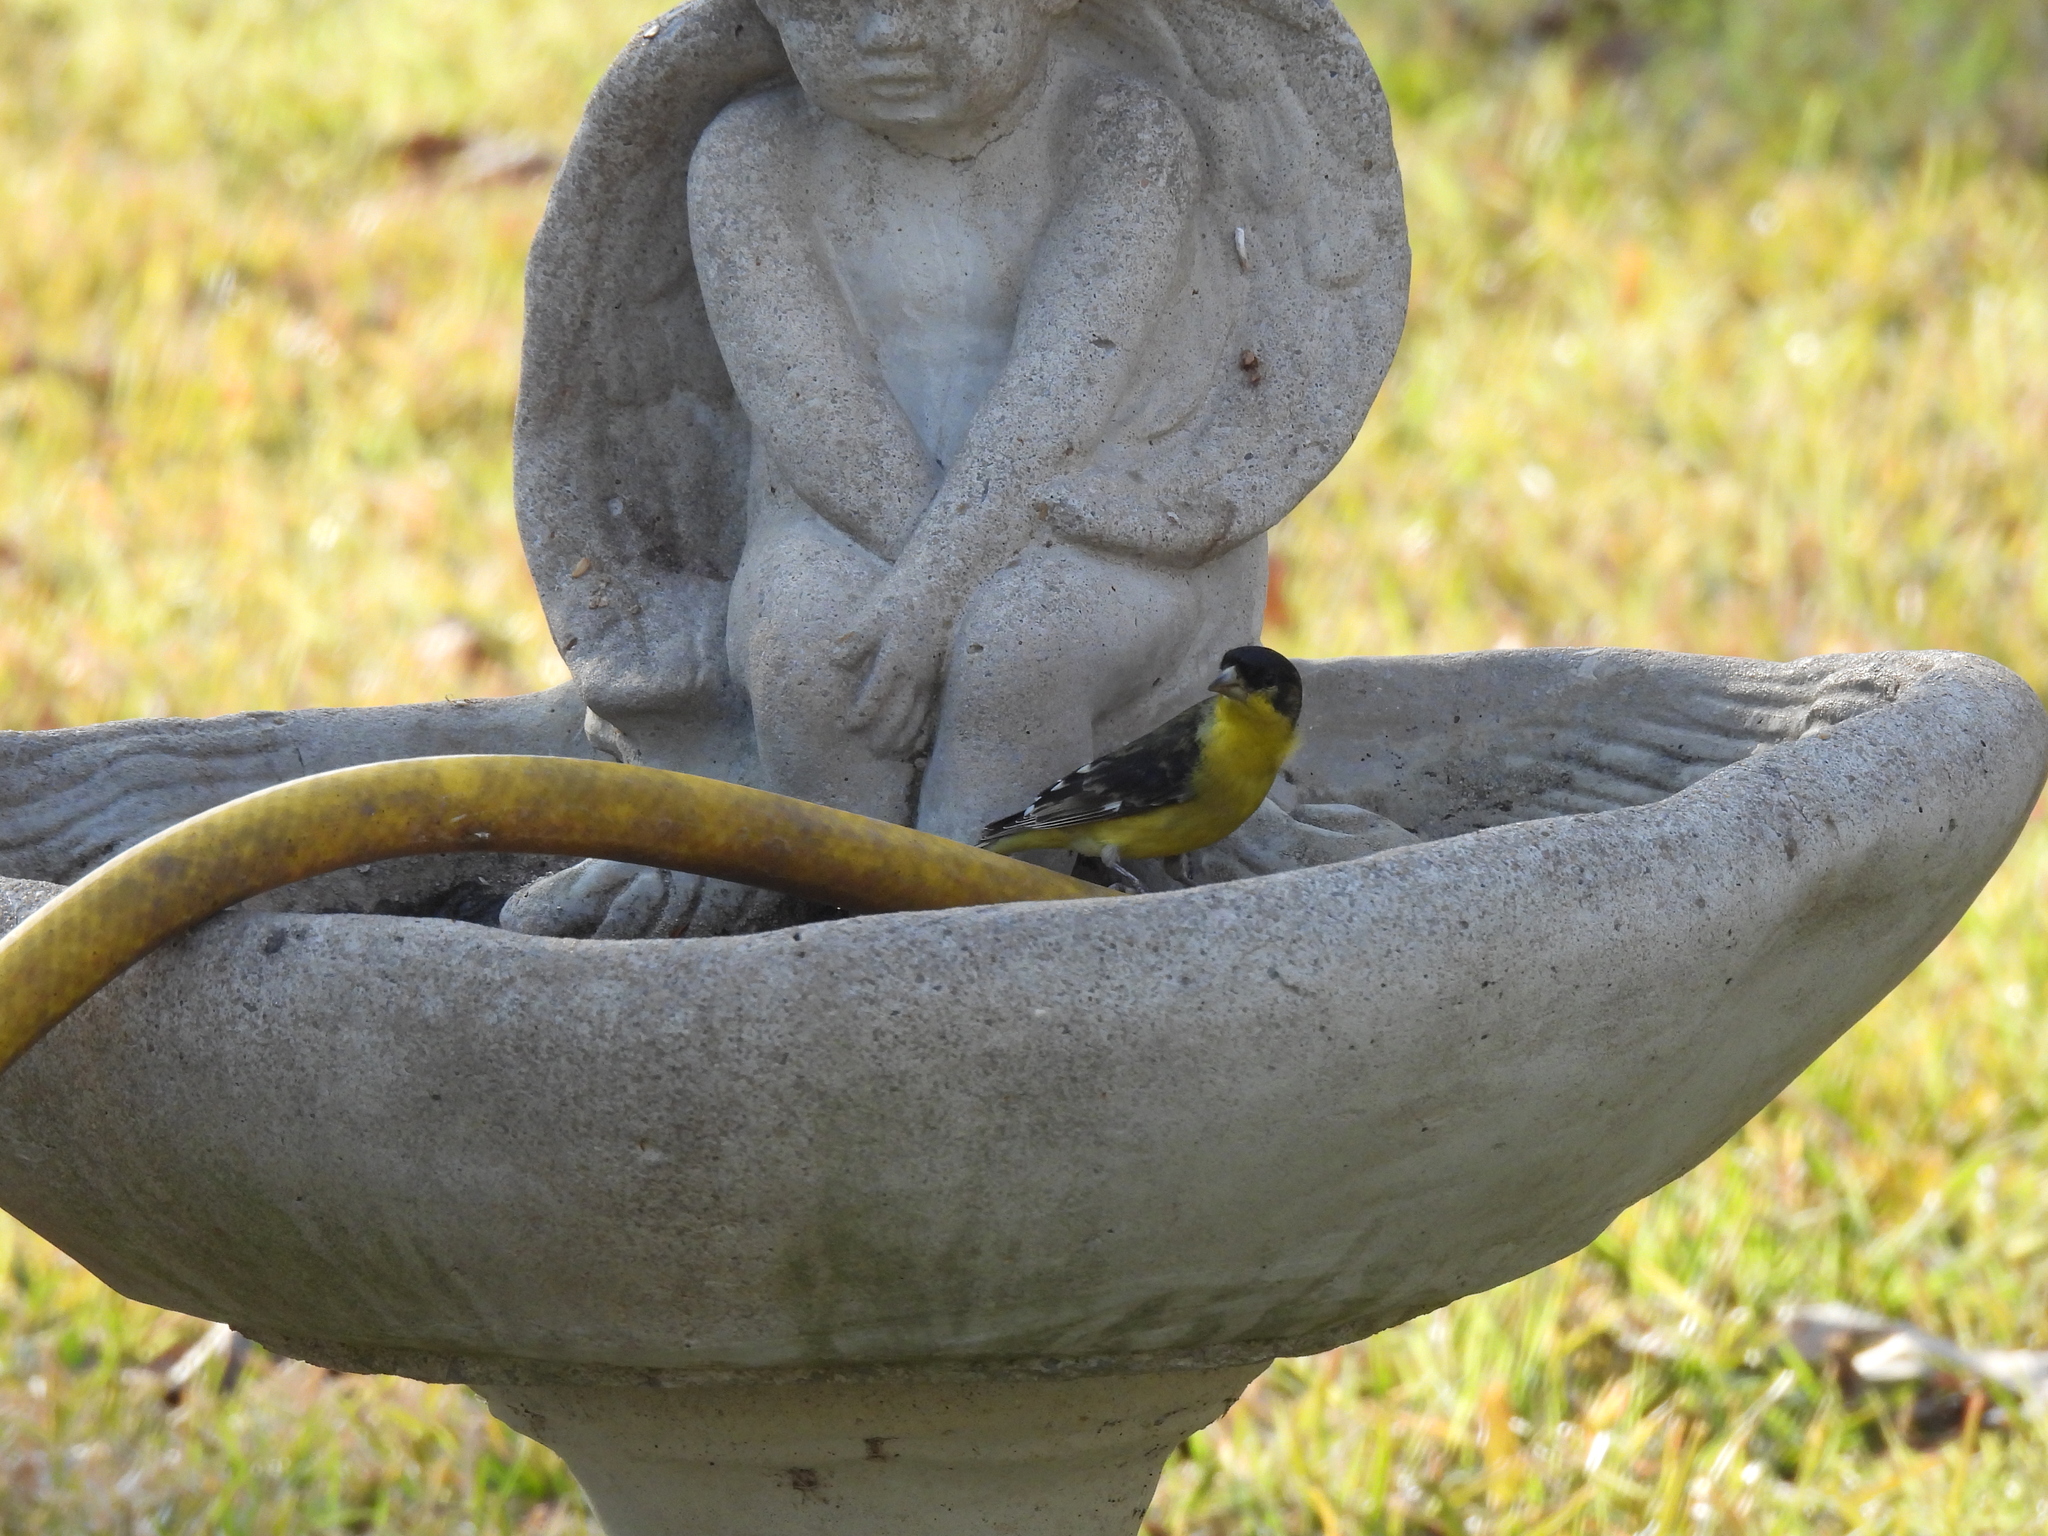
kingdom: Animalia
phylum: Chordata
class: Aves
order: Passeriformes
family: Fringillidae
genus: Spinus
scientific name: Spinus psaltria
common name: Lesser goldfinch
